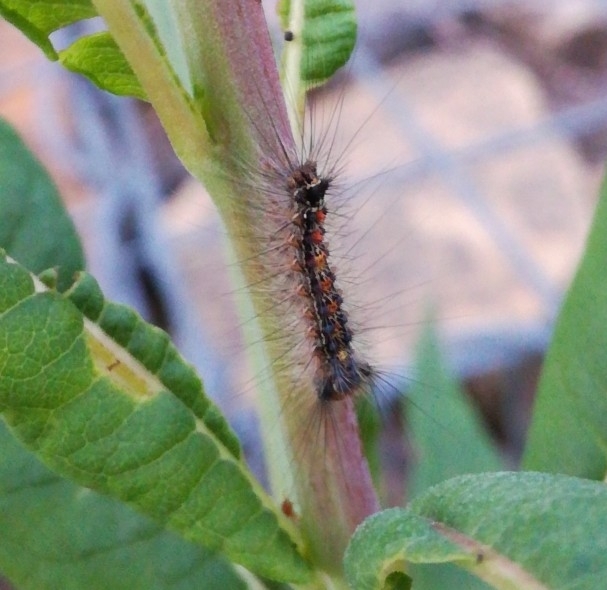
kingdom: Animalia
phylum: Arthropoda
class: Insecta
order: Lepidoptera
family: Erebidae
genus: Lymantria
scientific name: Lymantria dispar
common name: Gypsy moth
